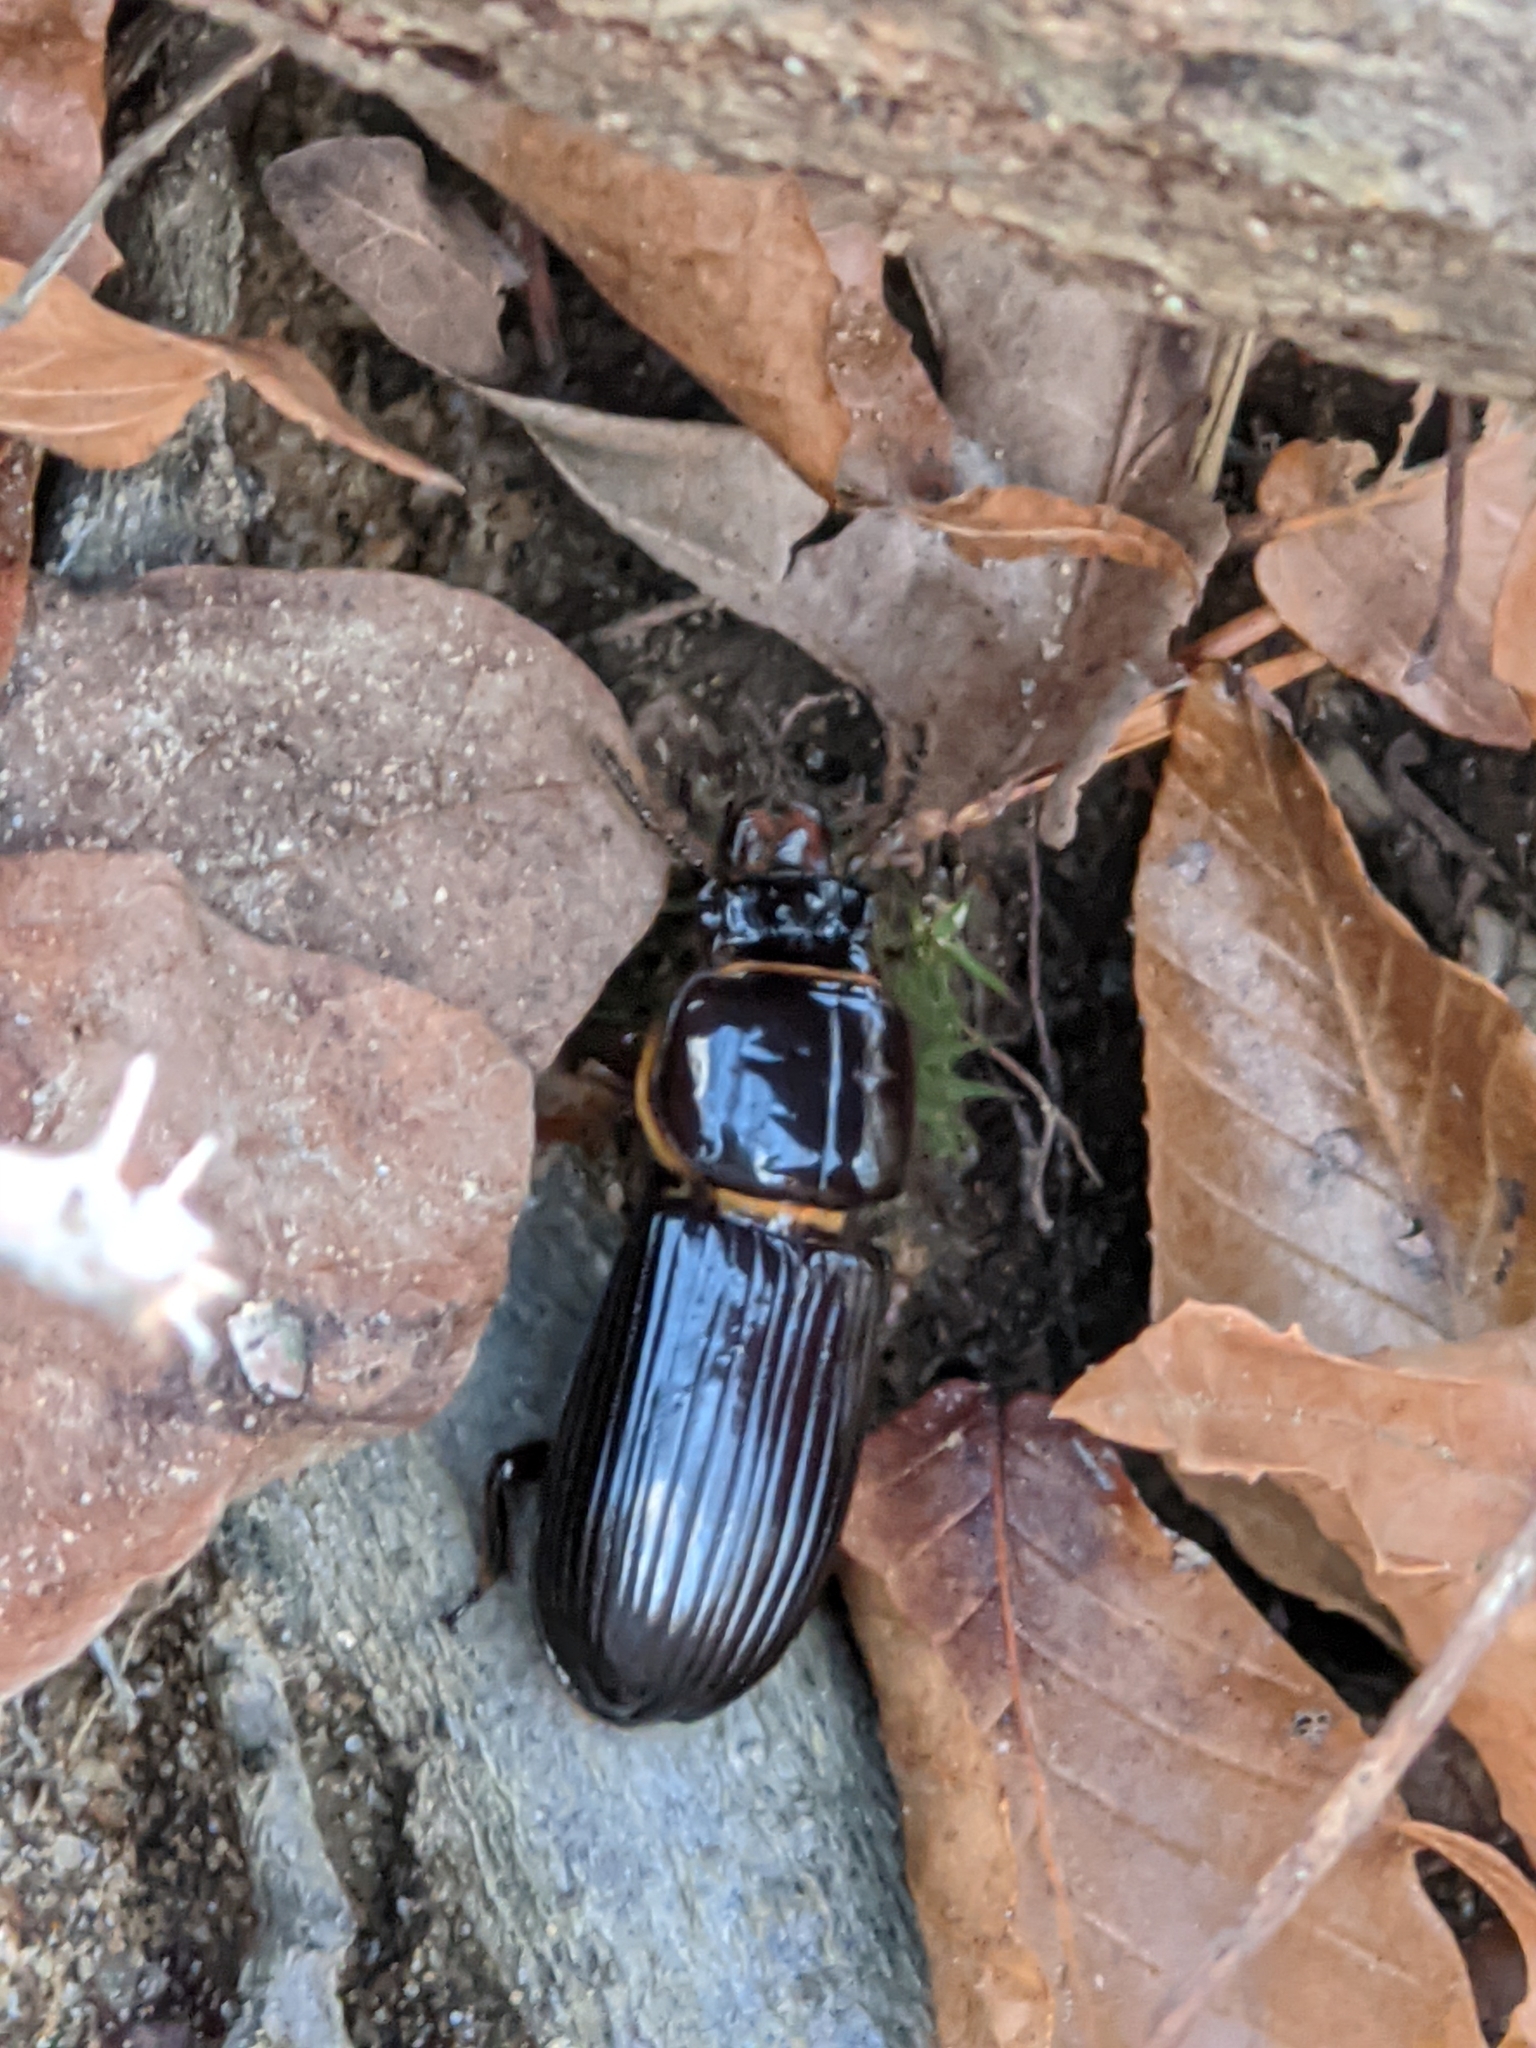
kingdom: Animalia
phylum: Arthropoda
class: Insecta
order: Coleoptera
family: Passalidae
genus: Odontotaenius
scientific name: Odontotaenius disjunctus
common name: Patent leather beetle
